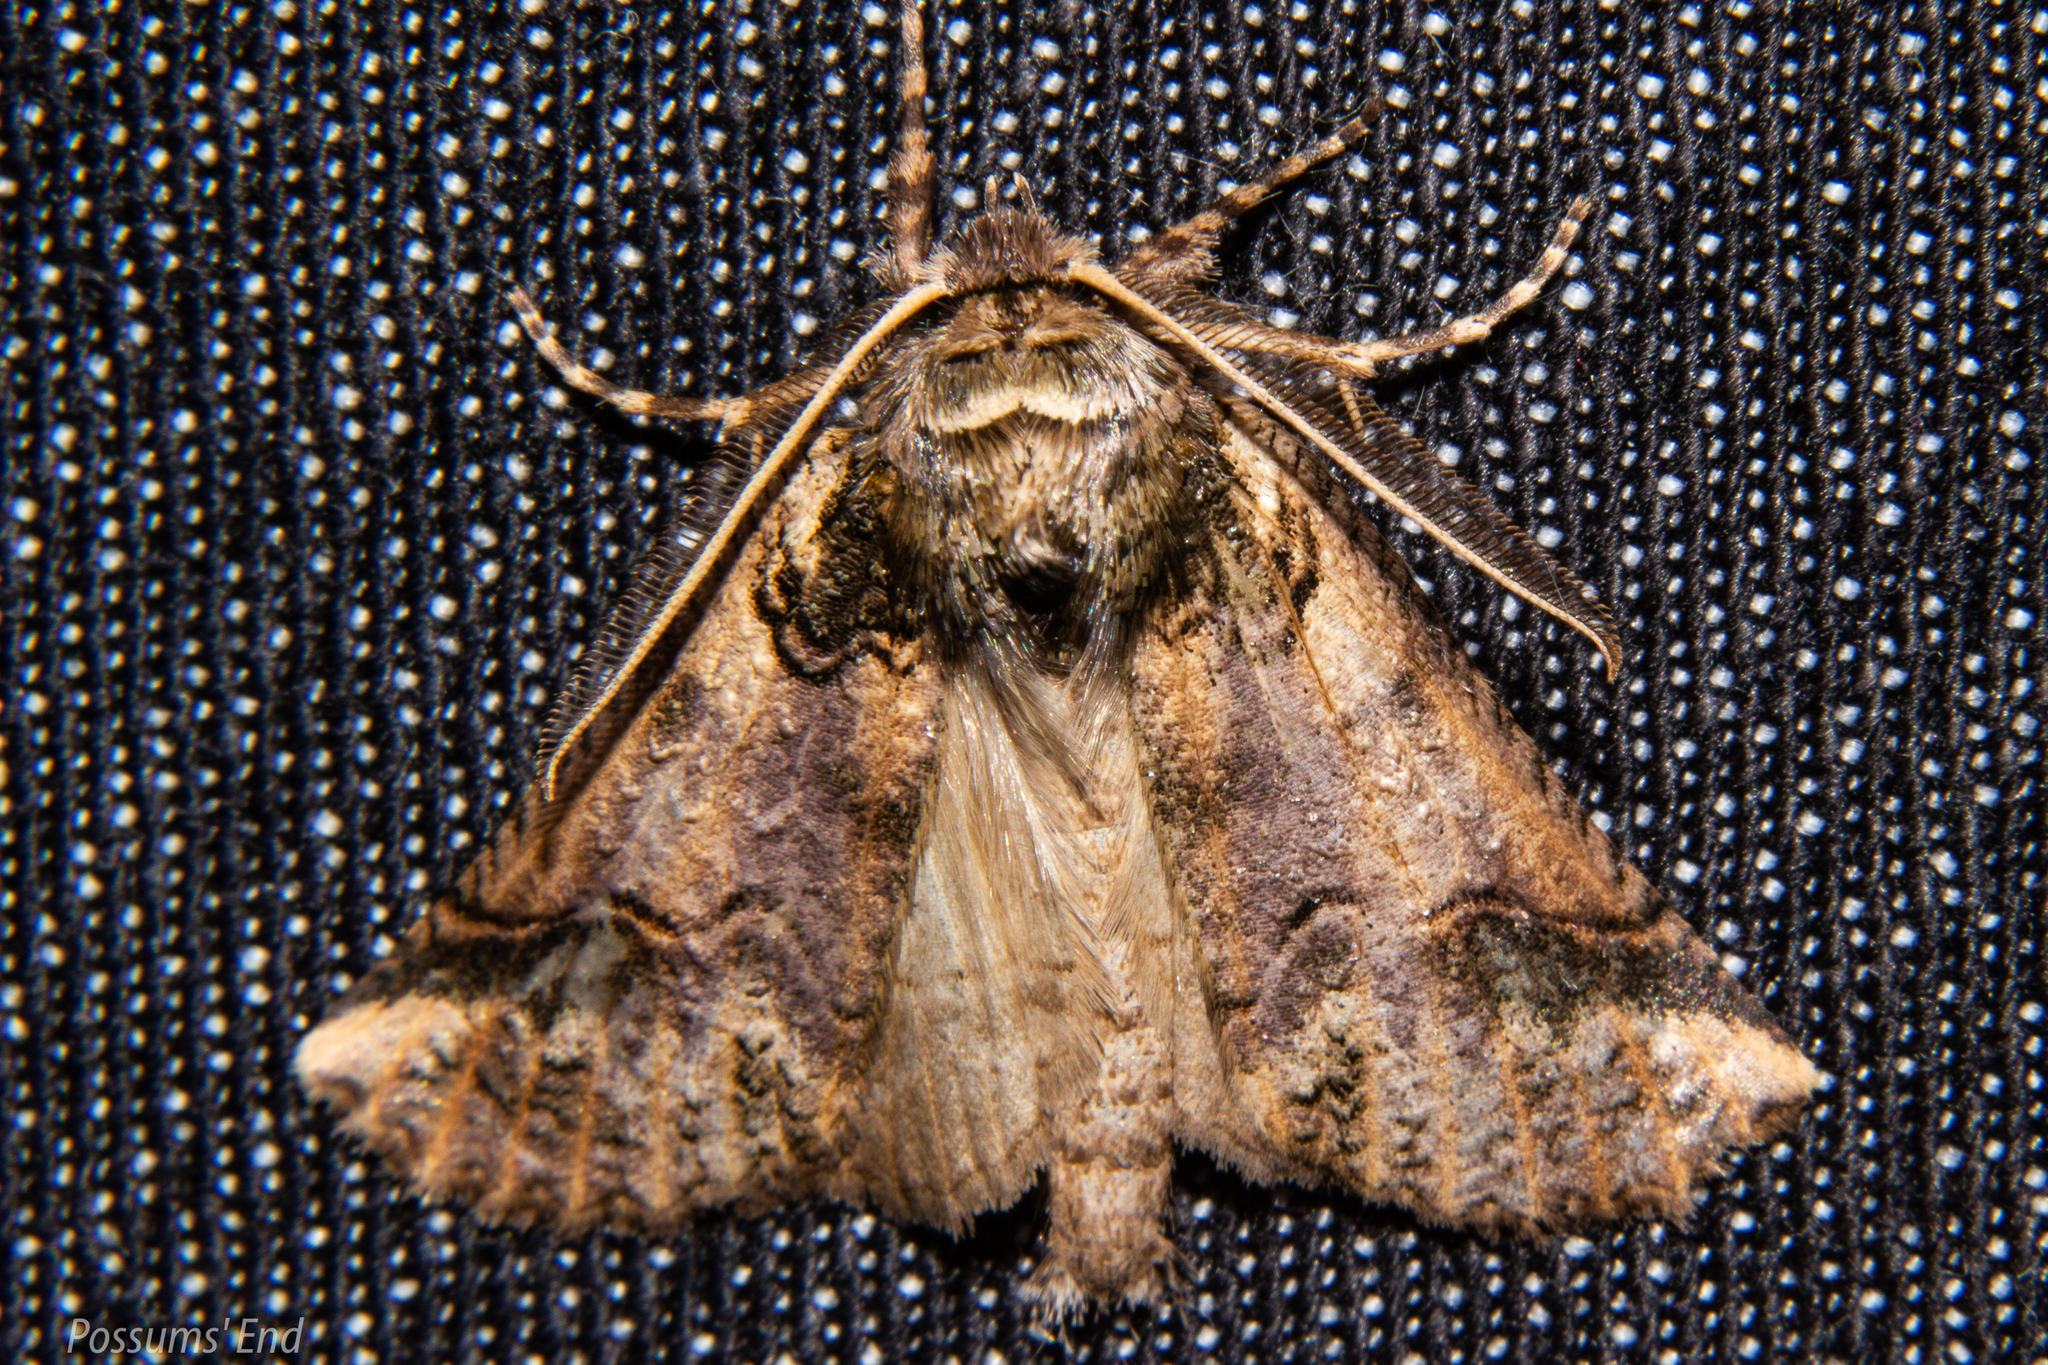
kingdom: Animalia
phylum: Arthropoda
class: Insecta
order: Lepidoptera
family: Geometridae
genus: Declana
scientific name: Declana
